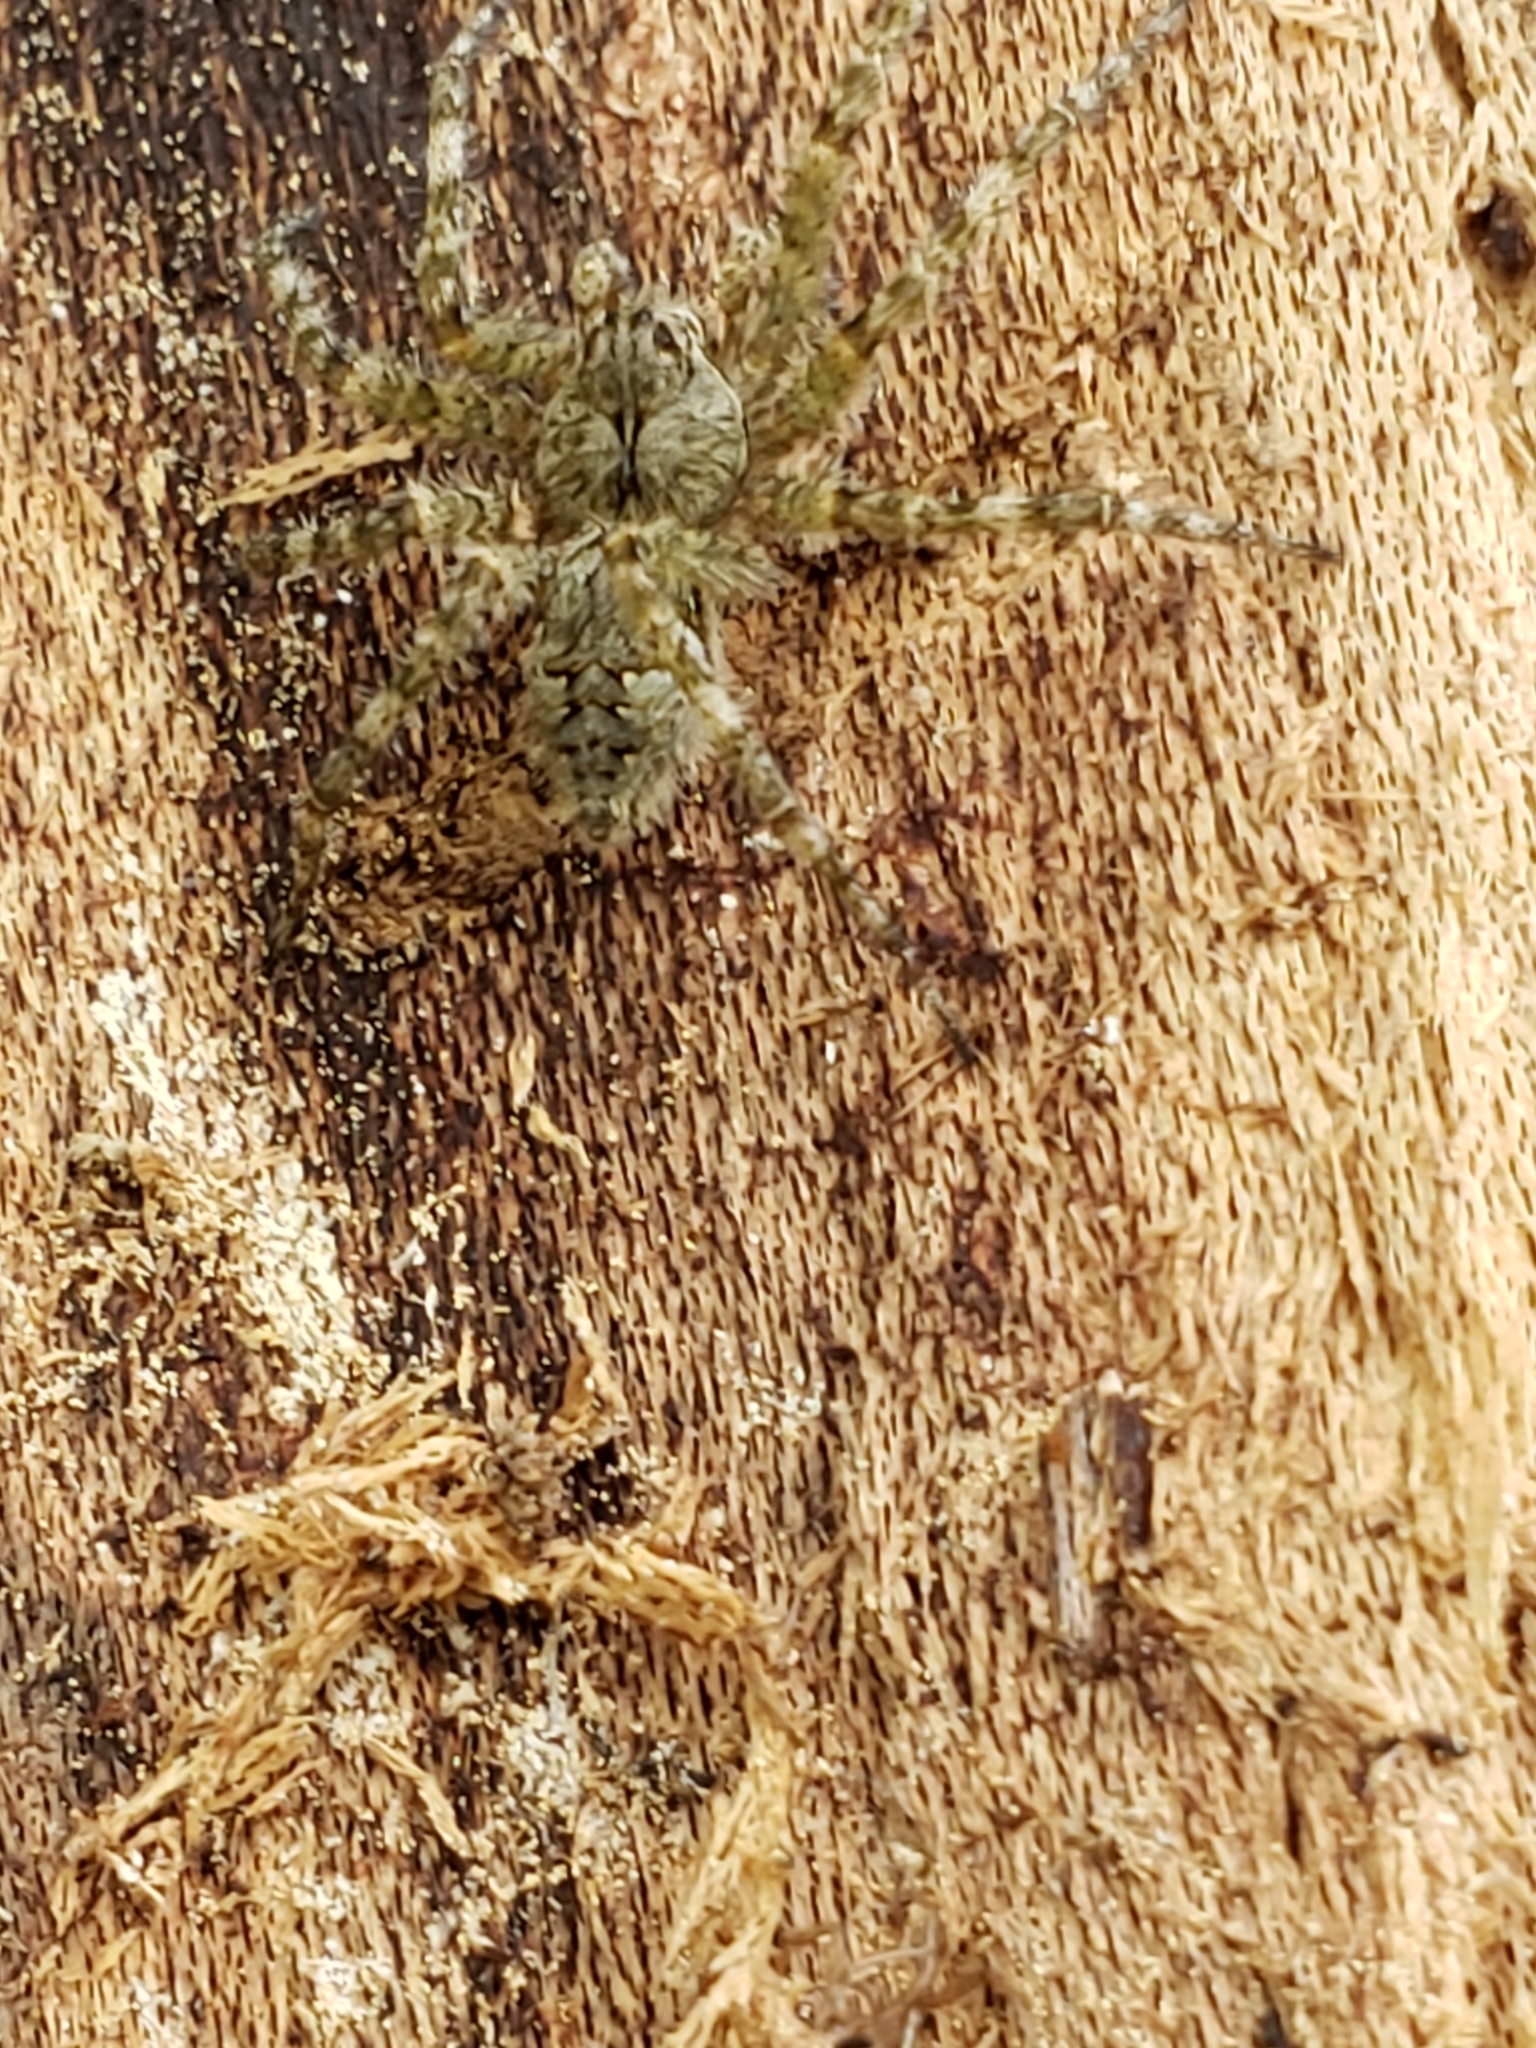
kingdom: Animalia
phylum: Arthropoda
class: Arachnida
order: Araneae
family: Pisauridae
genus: Dolomedes
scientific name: Dolomedes albineus
